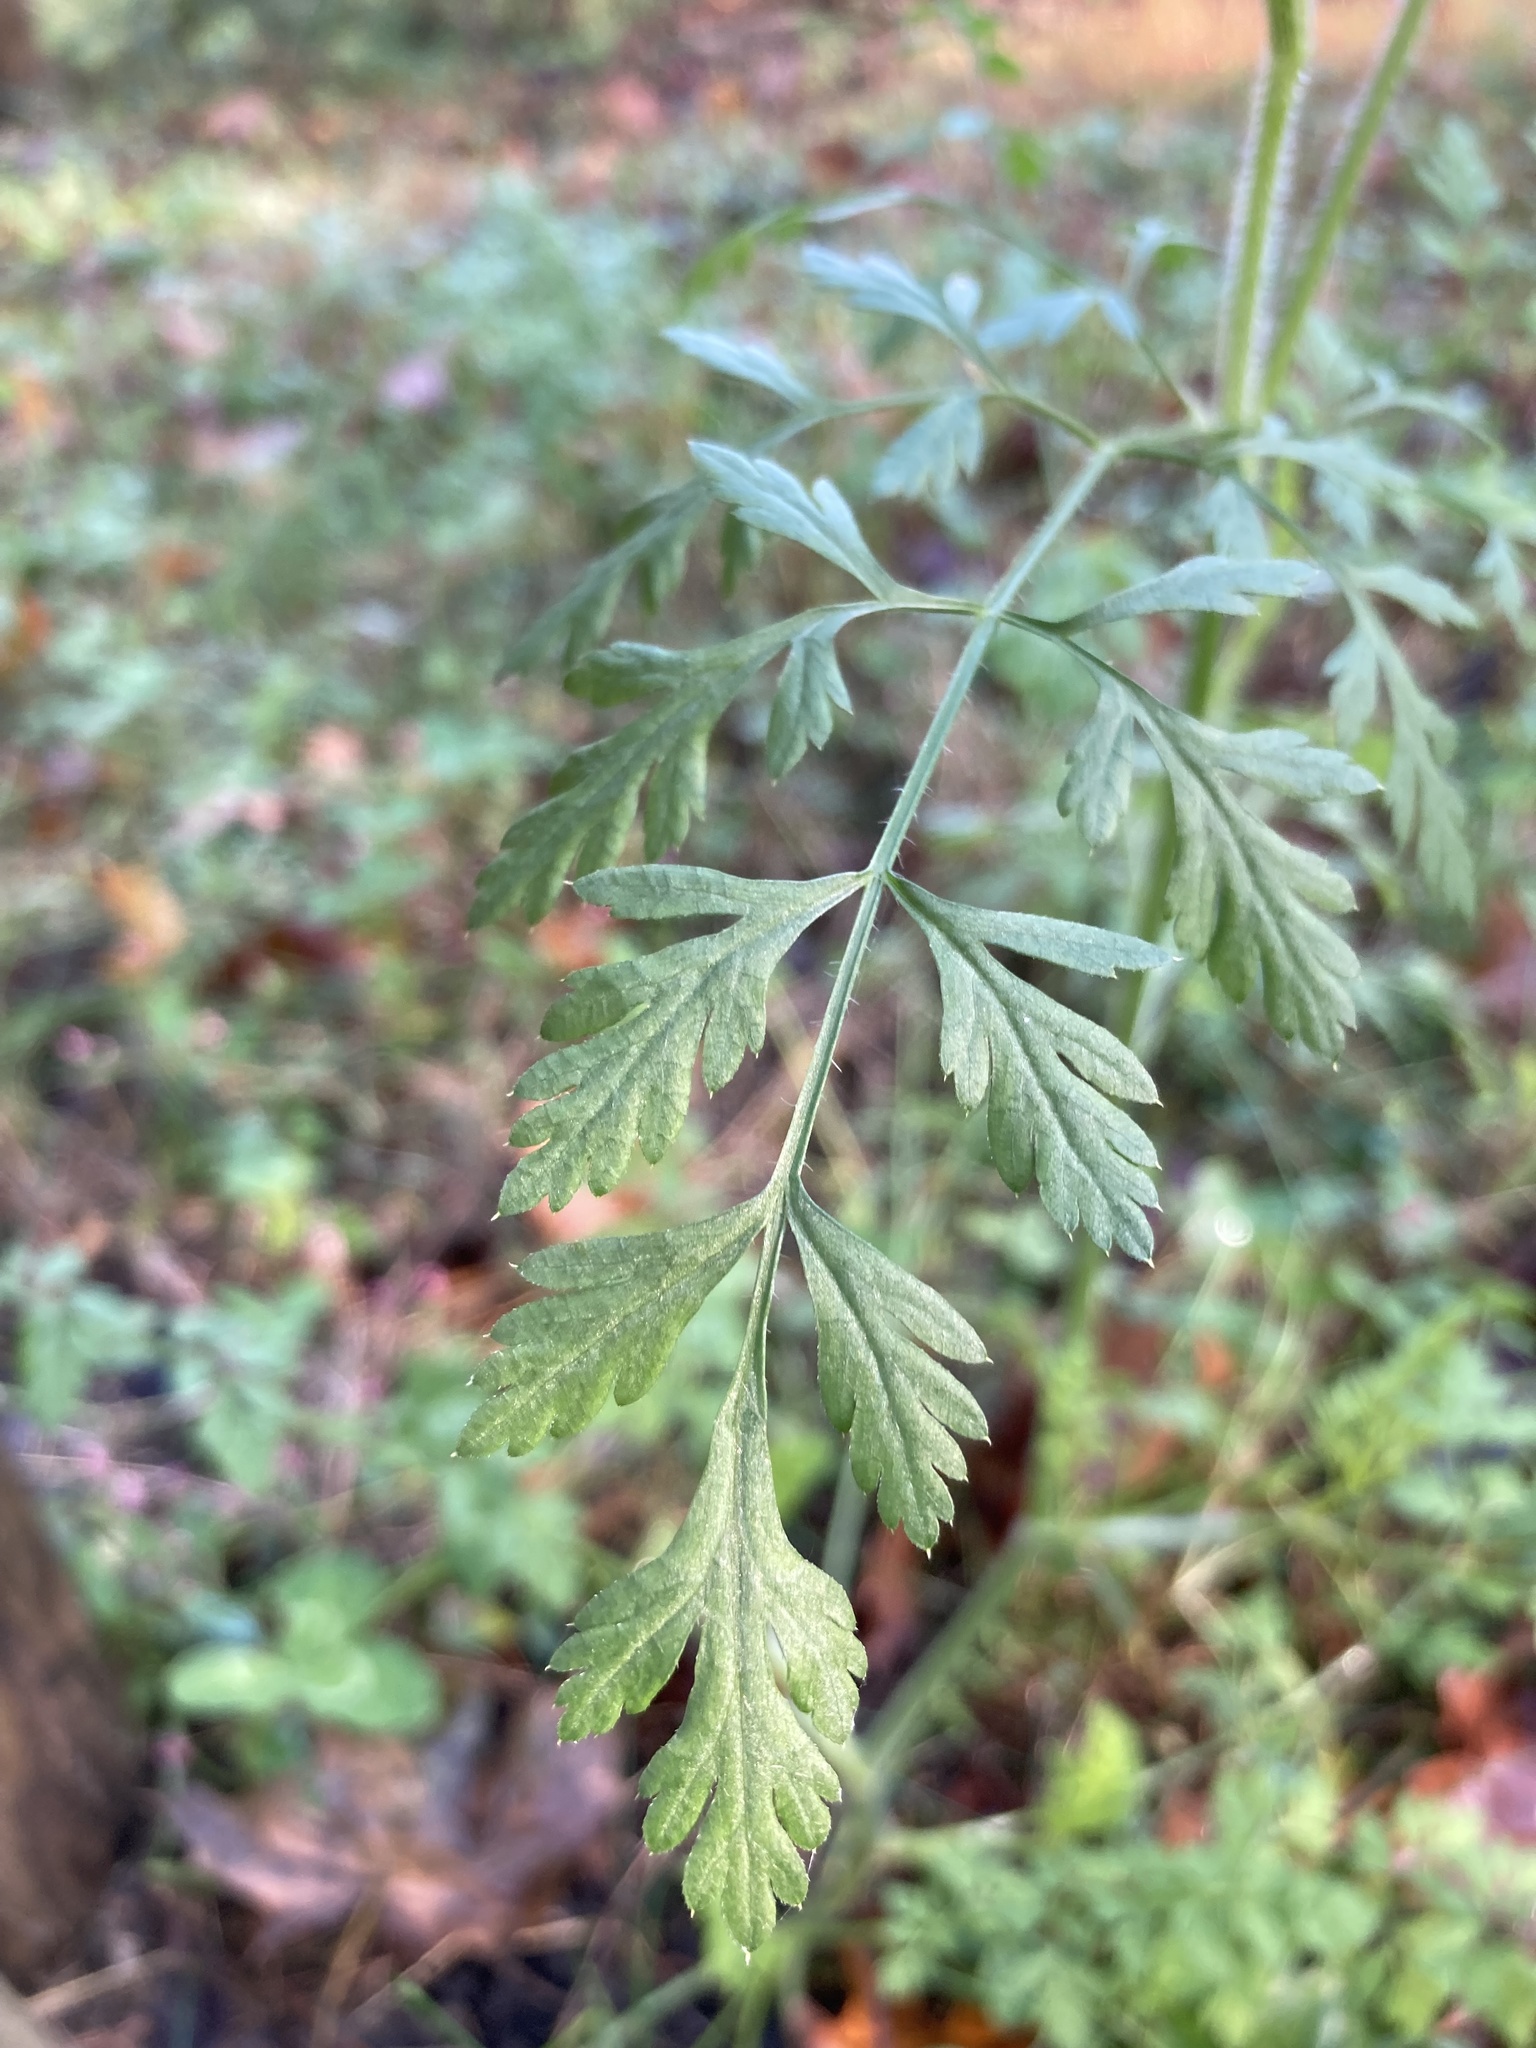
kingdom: Plantae
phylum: Tracheophyta
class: Magnoliopsida
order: Apiales
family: Apiaceae
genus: Daucus
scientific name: Daucus carota
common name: Wild carrot
